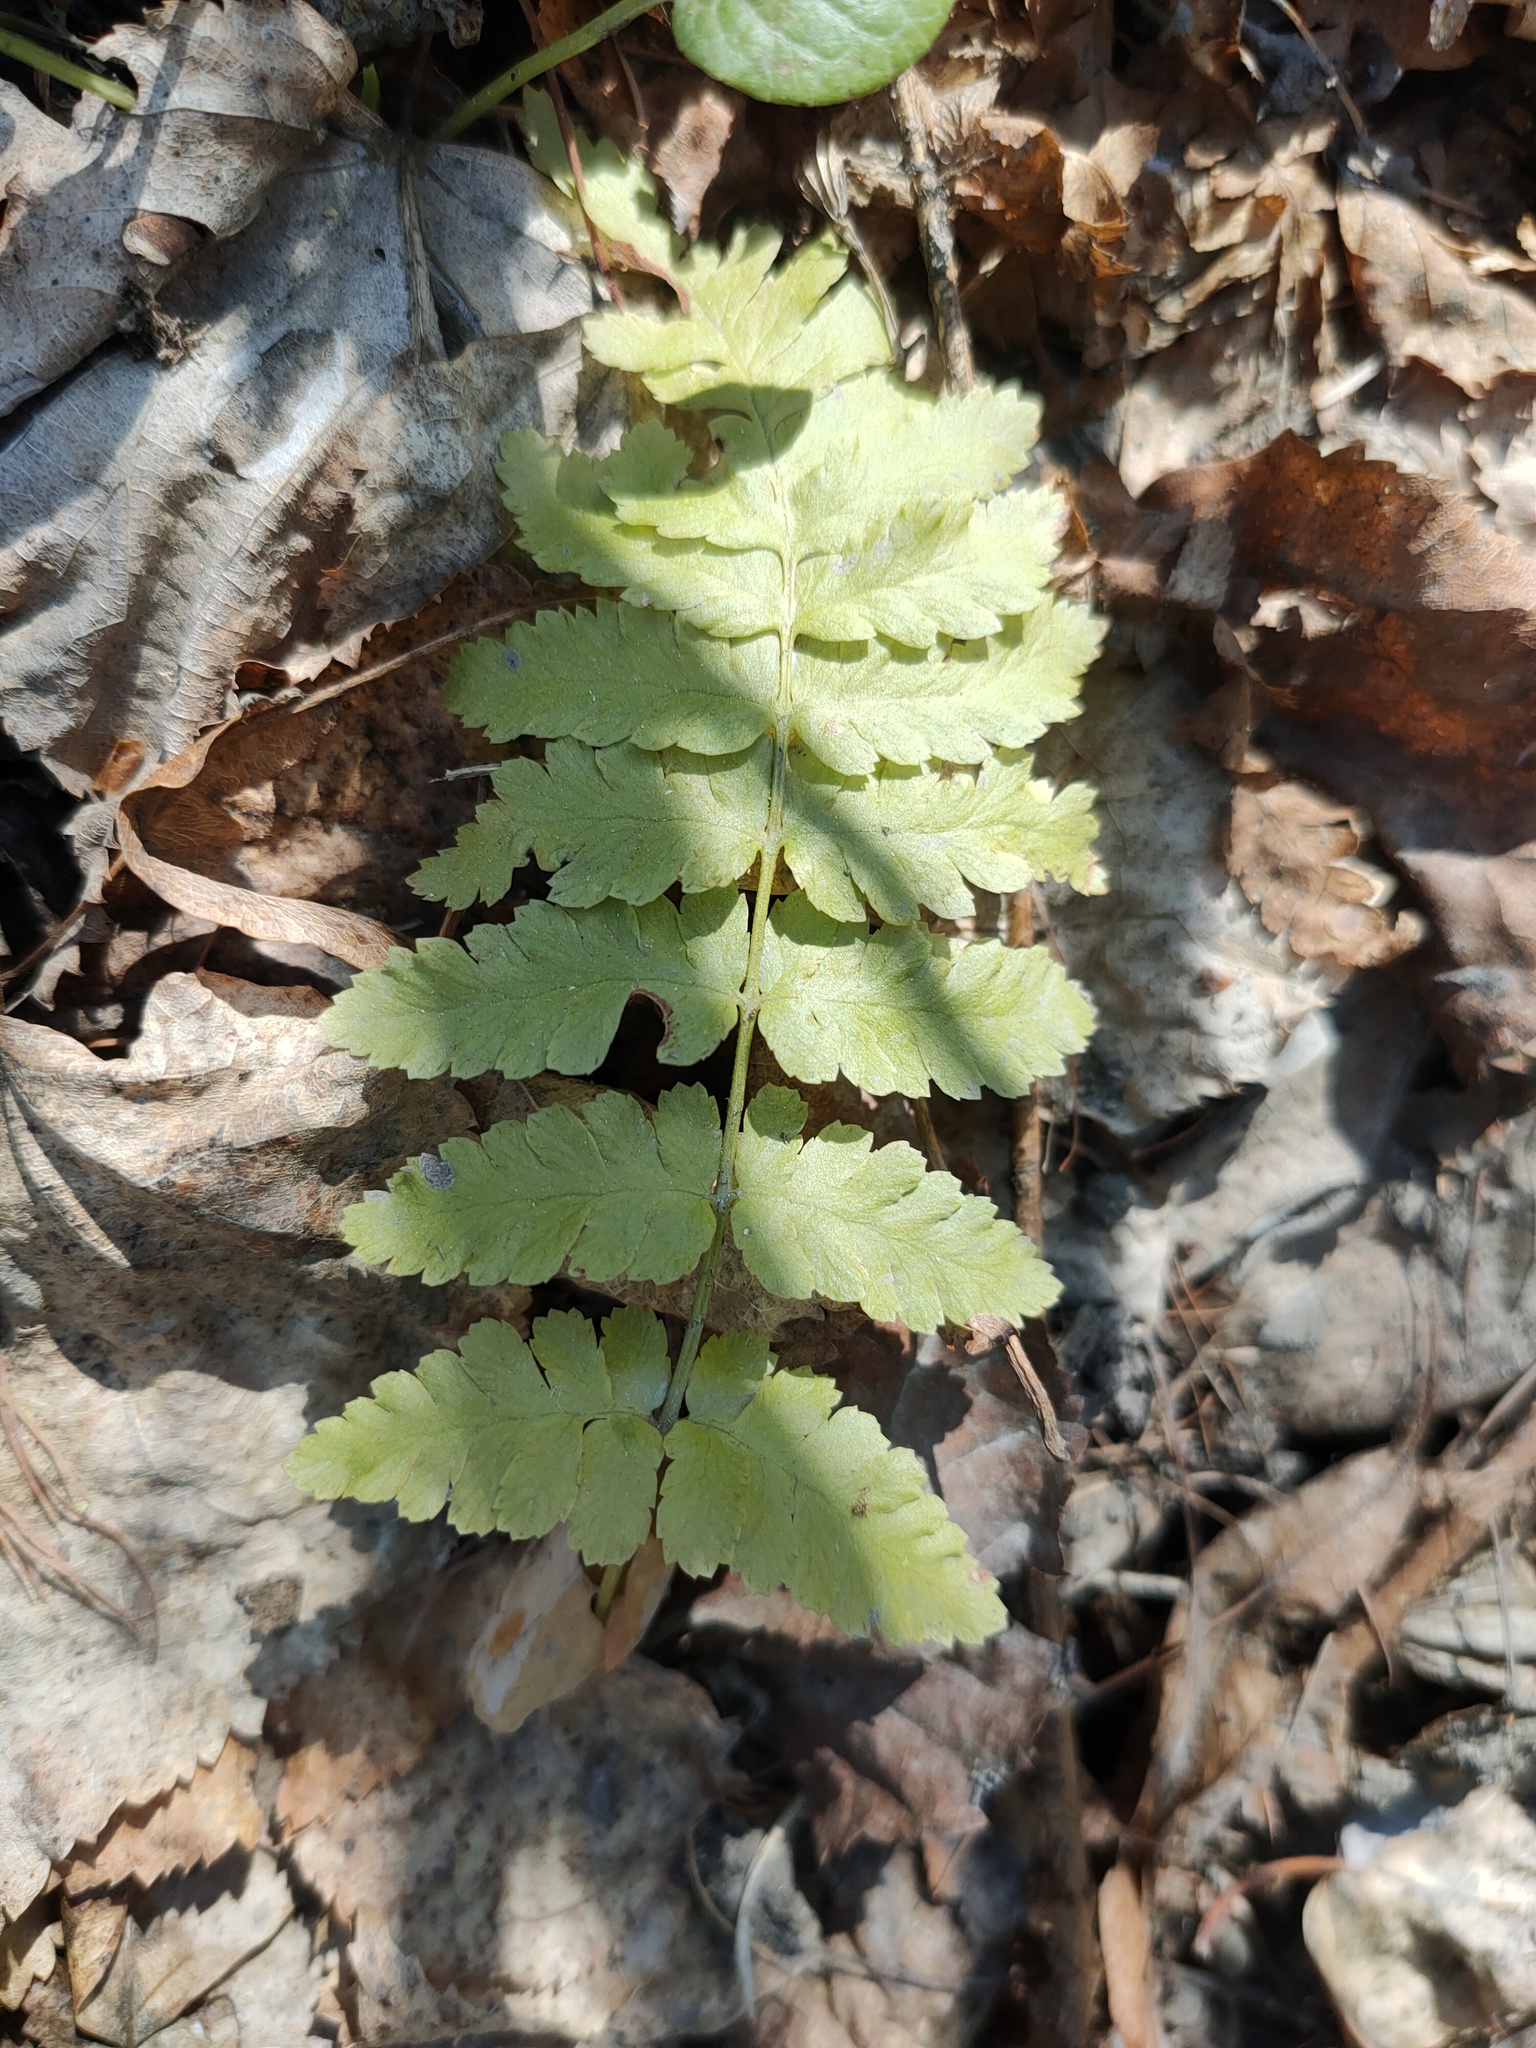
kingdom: Plantae
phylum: Tracheophyta
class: Polypodiopsida
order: Polypodiales
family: Dryopteridaceae
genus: Dryopteris
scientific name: Dryopteris cristata
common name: Crested wood fern
